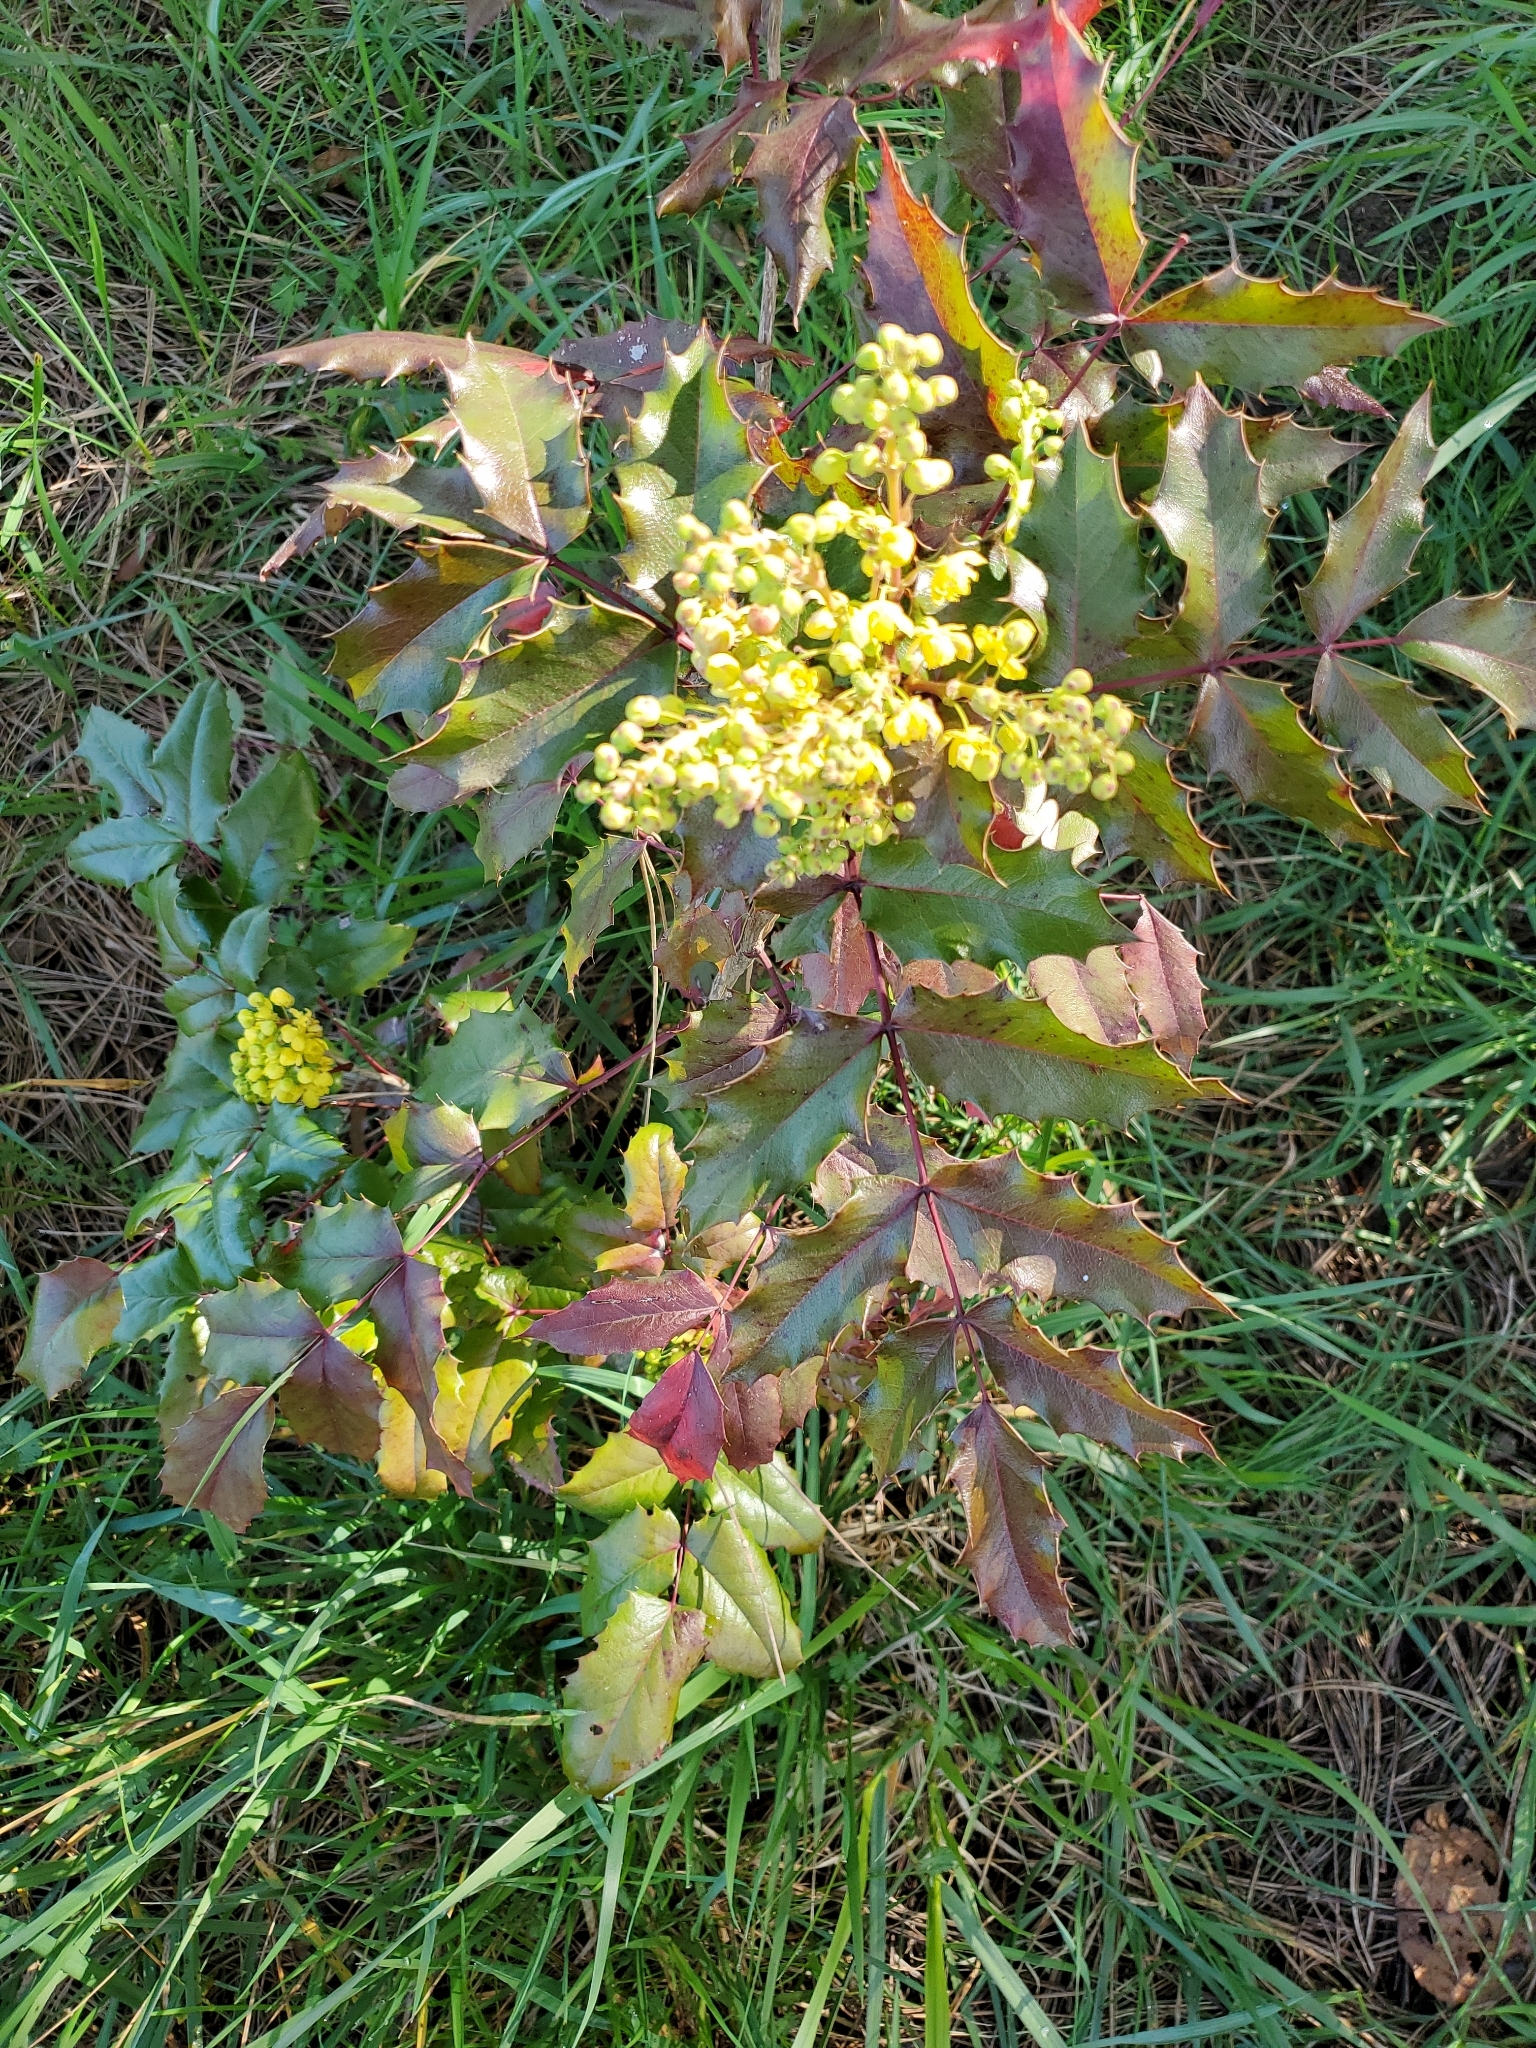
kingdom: Plantae
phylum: Tracheophyta
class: Magnoliopsida
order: Ranunculales
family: Berberidaceae
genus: Mahonia
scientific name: Mahonia aquifolium
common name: Oregon-grape
